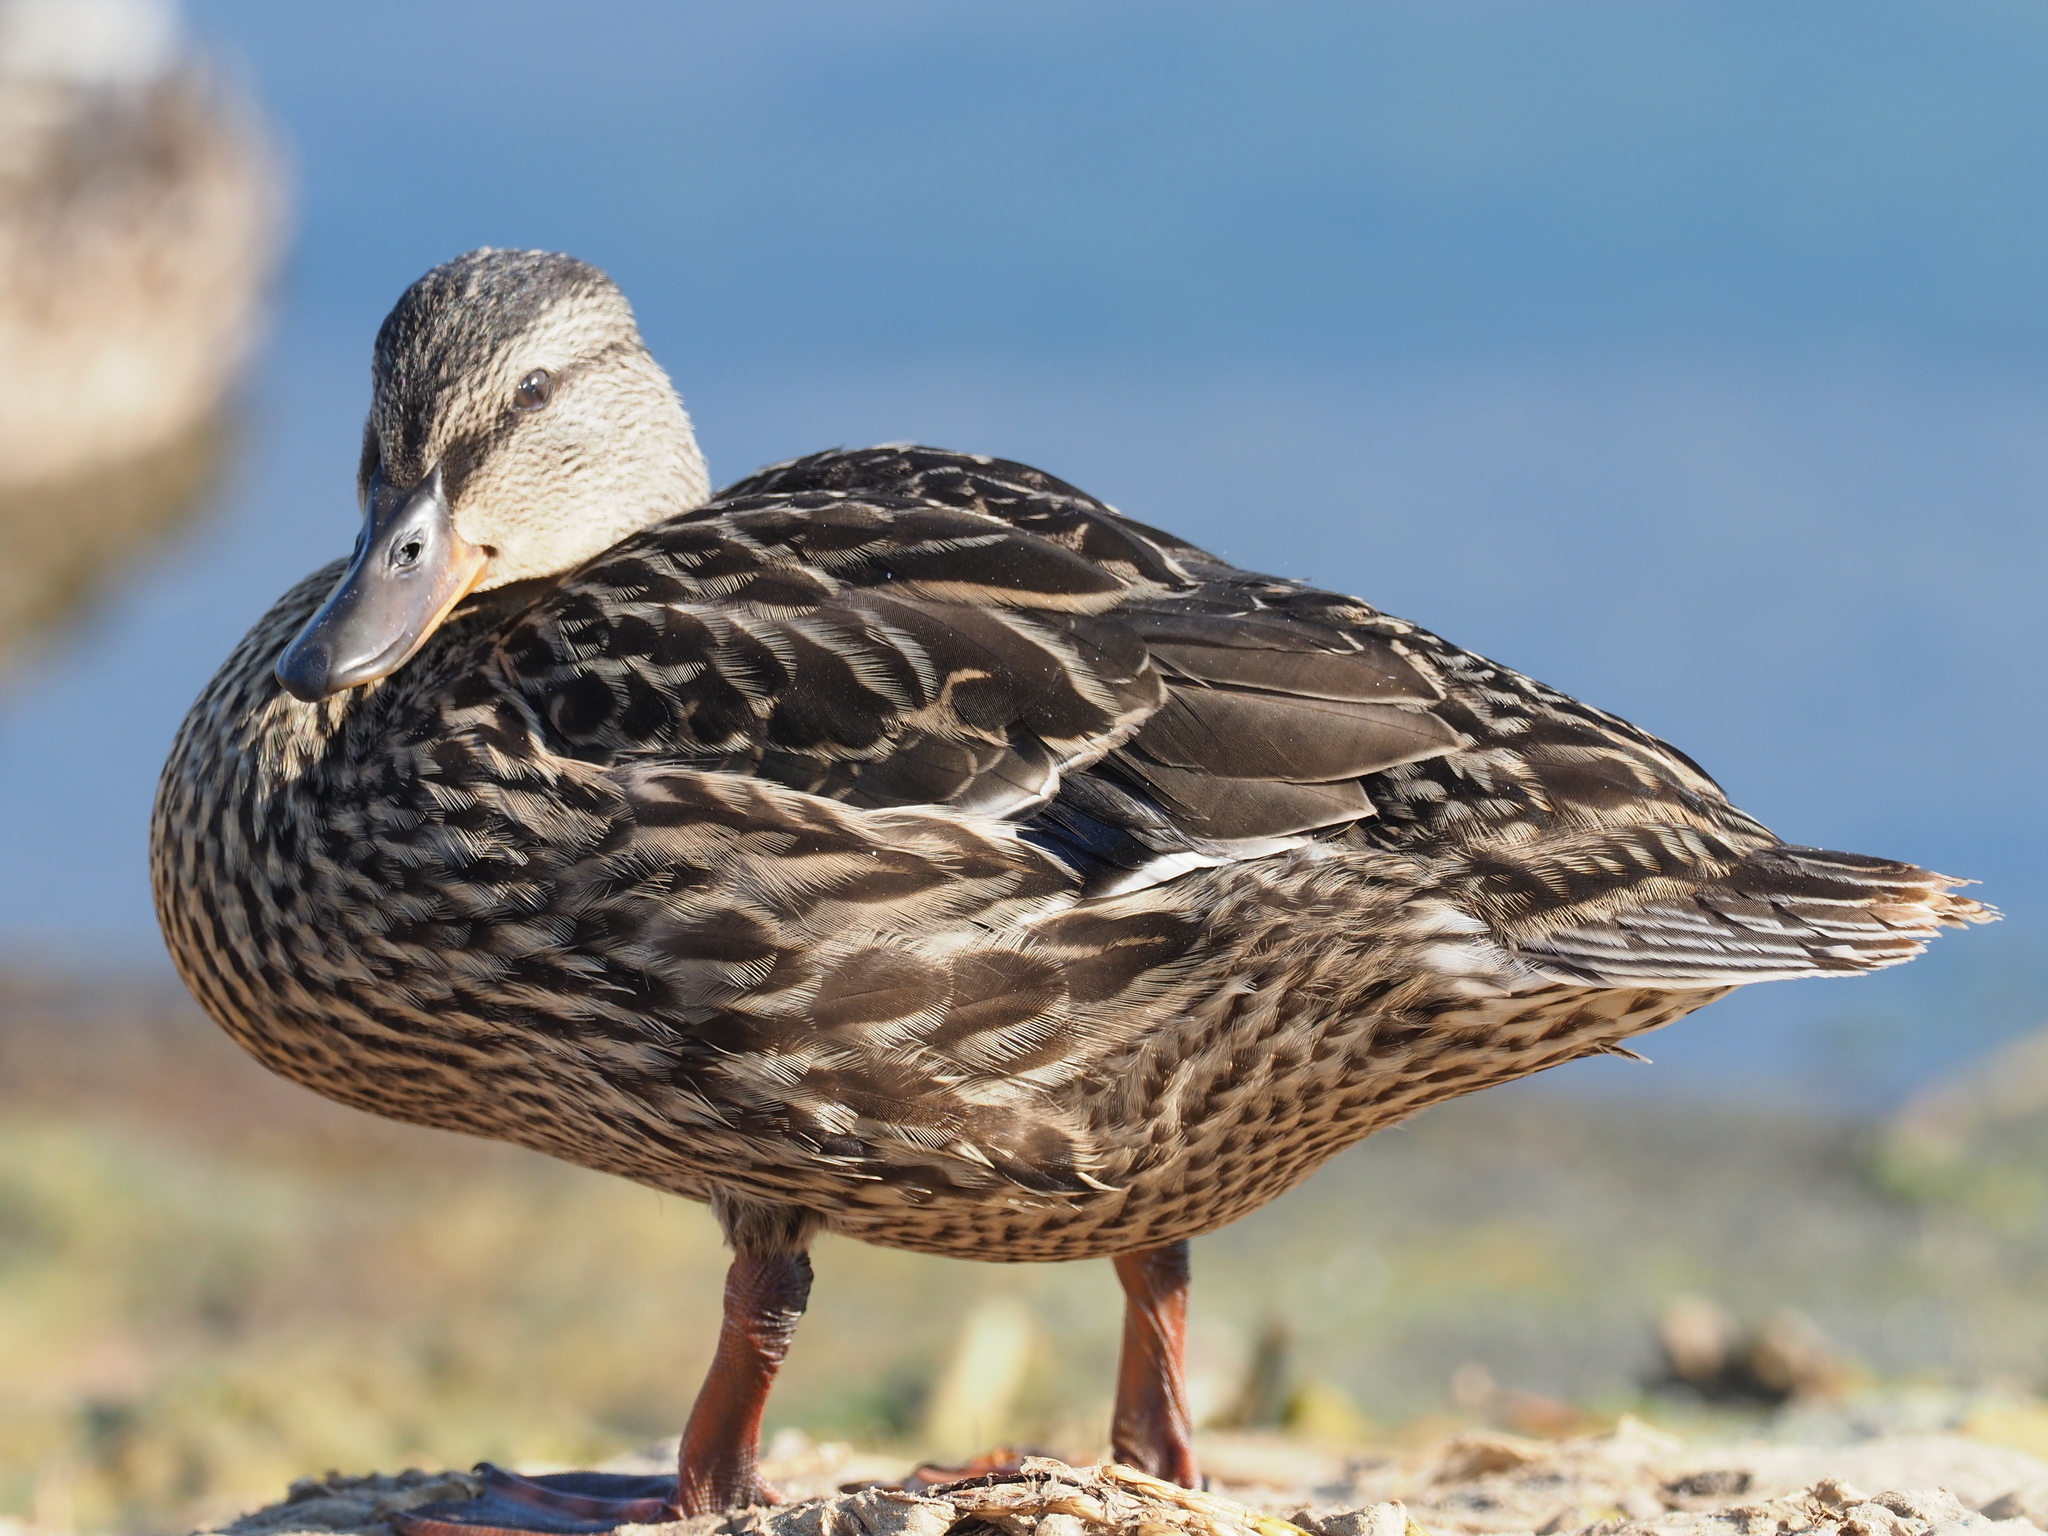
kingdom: Animalia
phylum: Chordata
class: Aves
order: Anseriformes
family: Anatidae
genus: Anas
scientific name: Anas platyrhynchos
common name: Mallard
